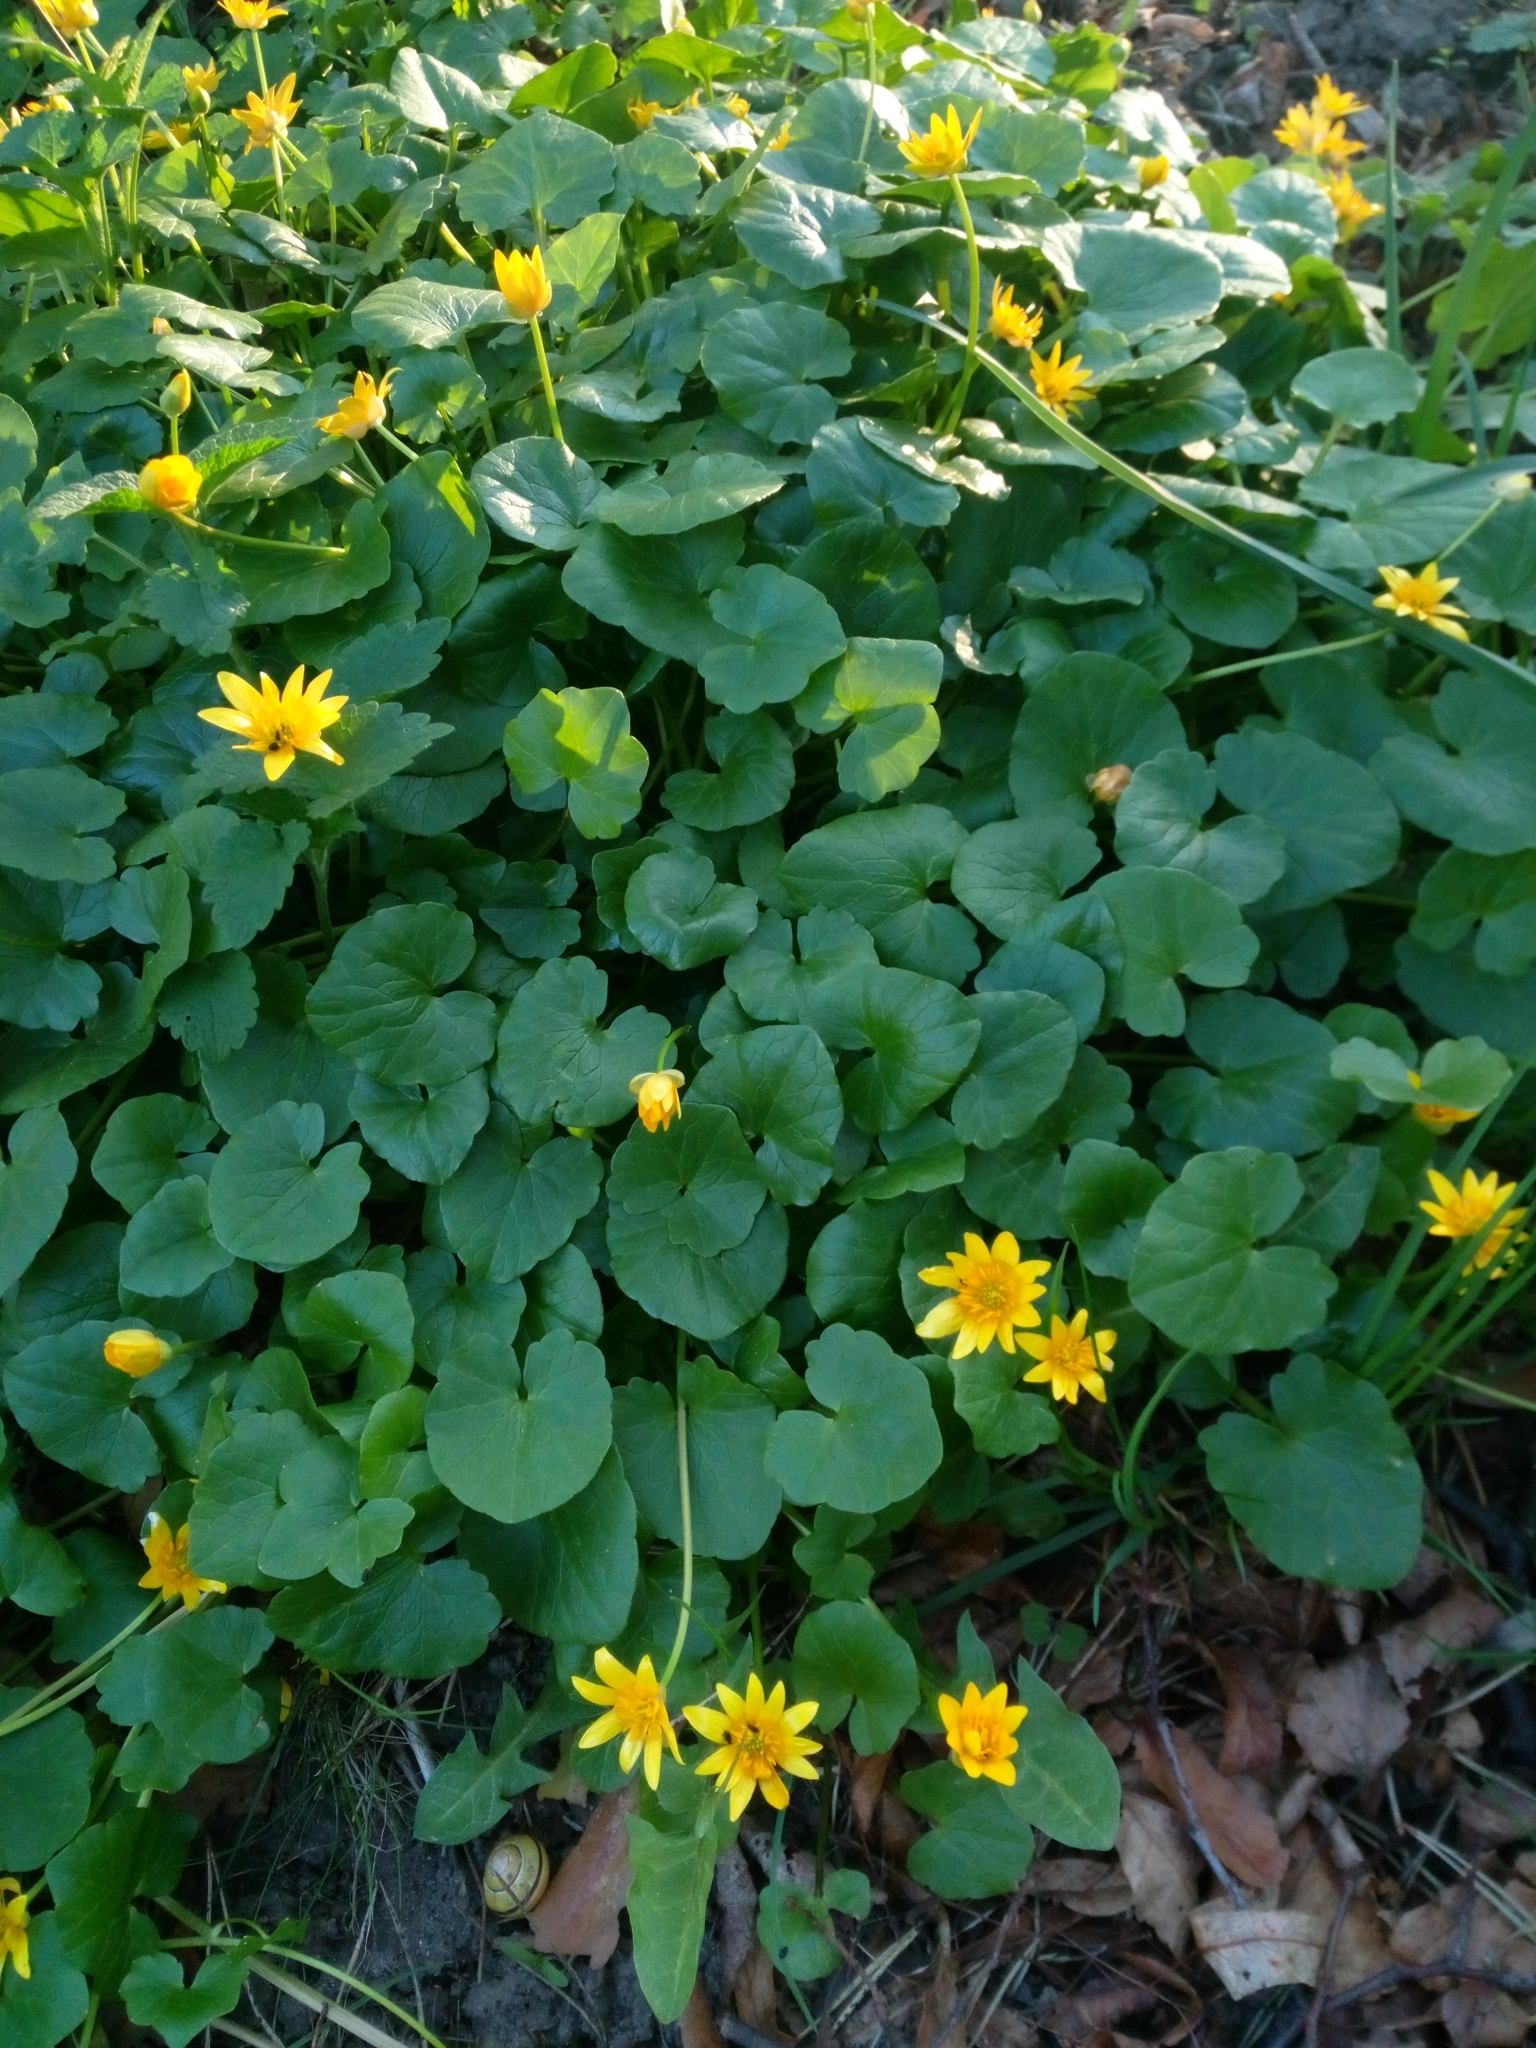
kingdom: Plantae
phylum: Tracheophyta
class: Magnoliopsida
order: Ranunculales
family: Ranunculaceae
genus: Ficaria
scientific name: Ficaria verna
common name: Lesser celandine
